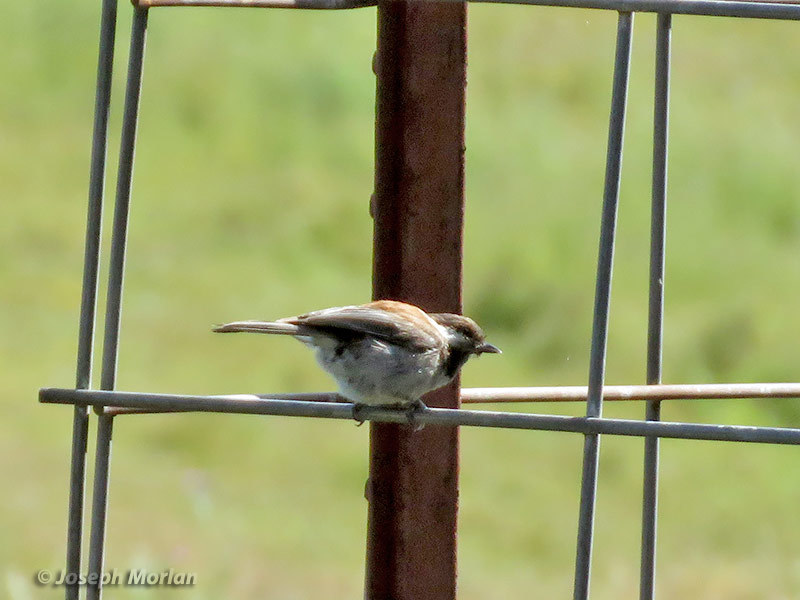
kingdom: Animalia
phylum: Chordata
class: Aves
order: Passeriformes
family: Paridae
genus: Poecile
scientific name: Poecile rufescens
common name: Chestnut-backed chickadee
